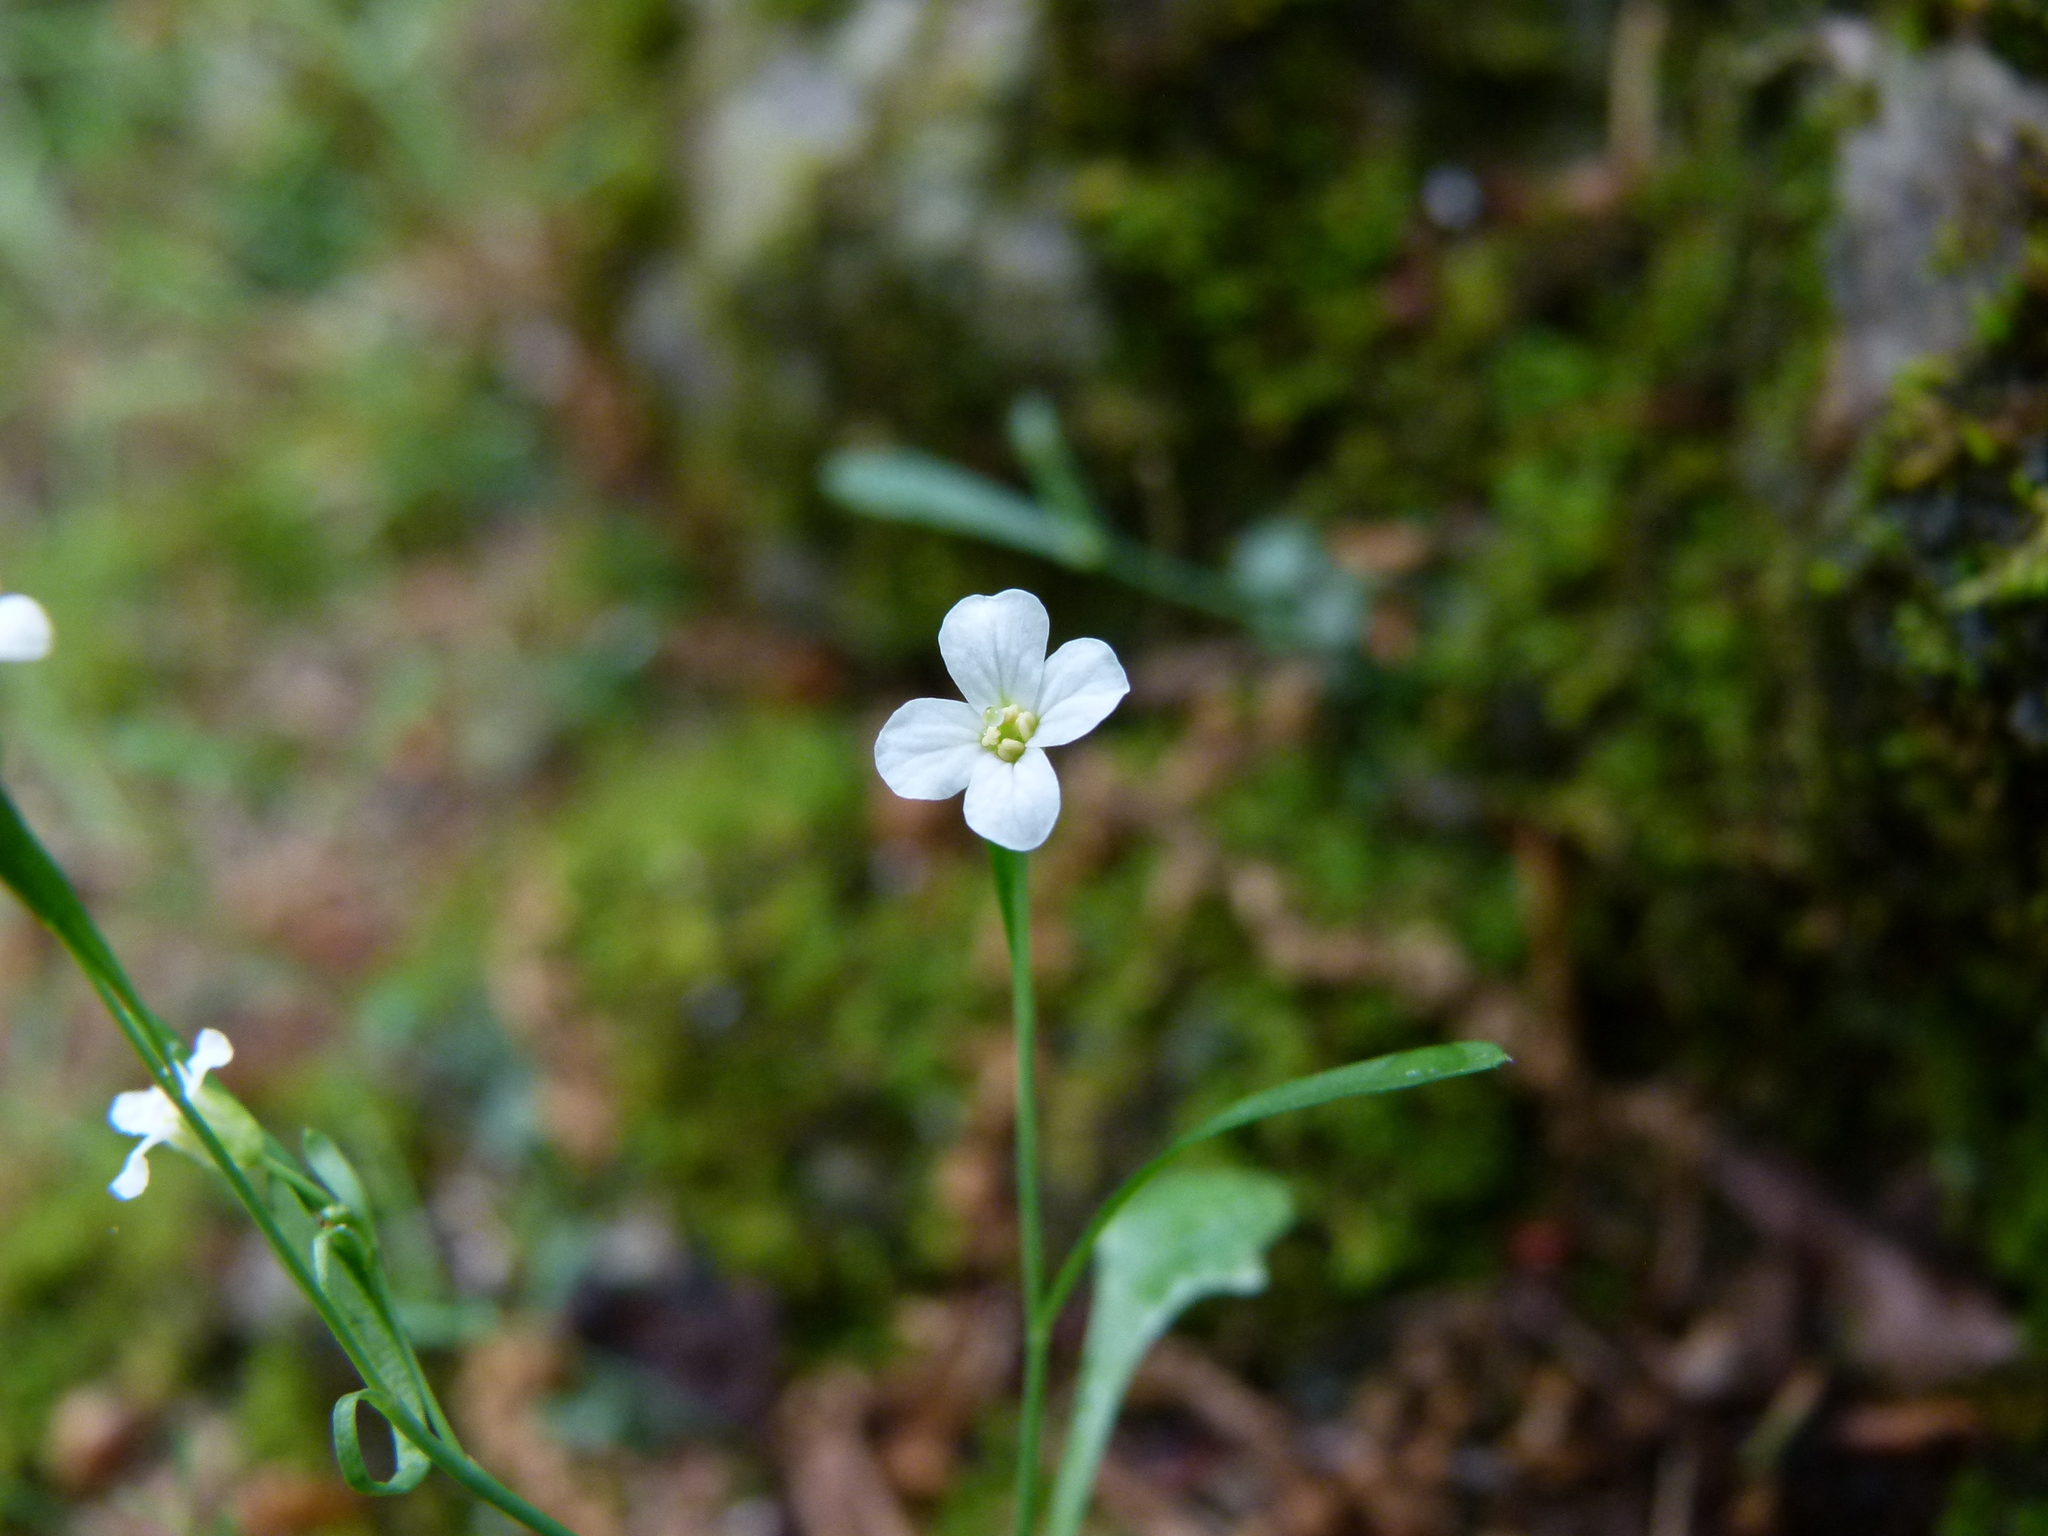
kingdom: Plantae
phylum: Tracheophyta
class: Magnoliopsida
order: Brassicales
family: Brassicaceae
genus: Arabidopsis
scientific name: Arabidopsis lyrata
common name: Lyrate rockcress
